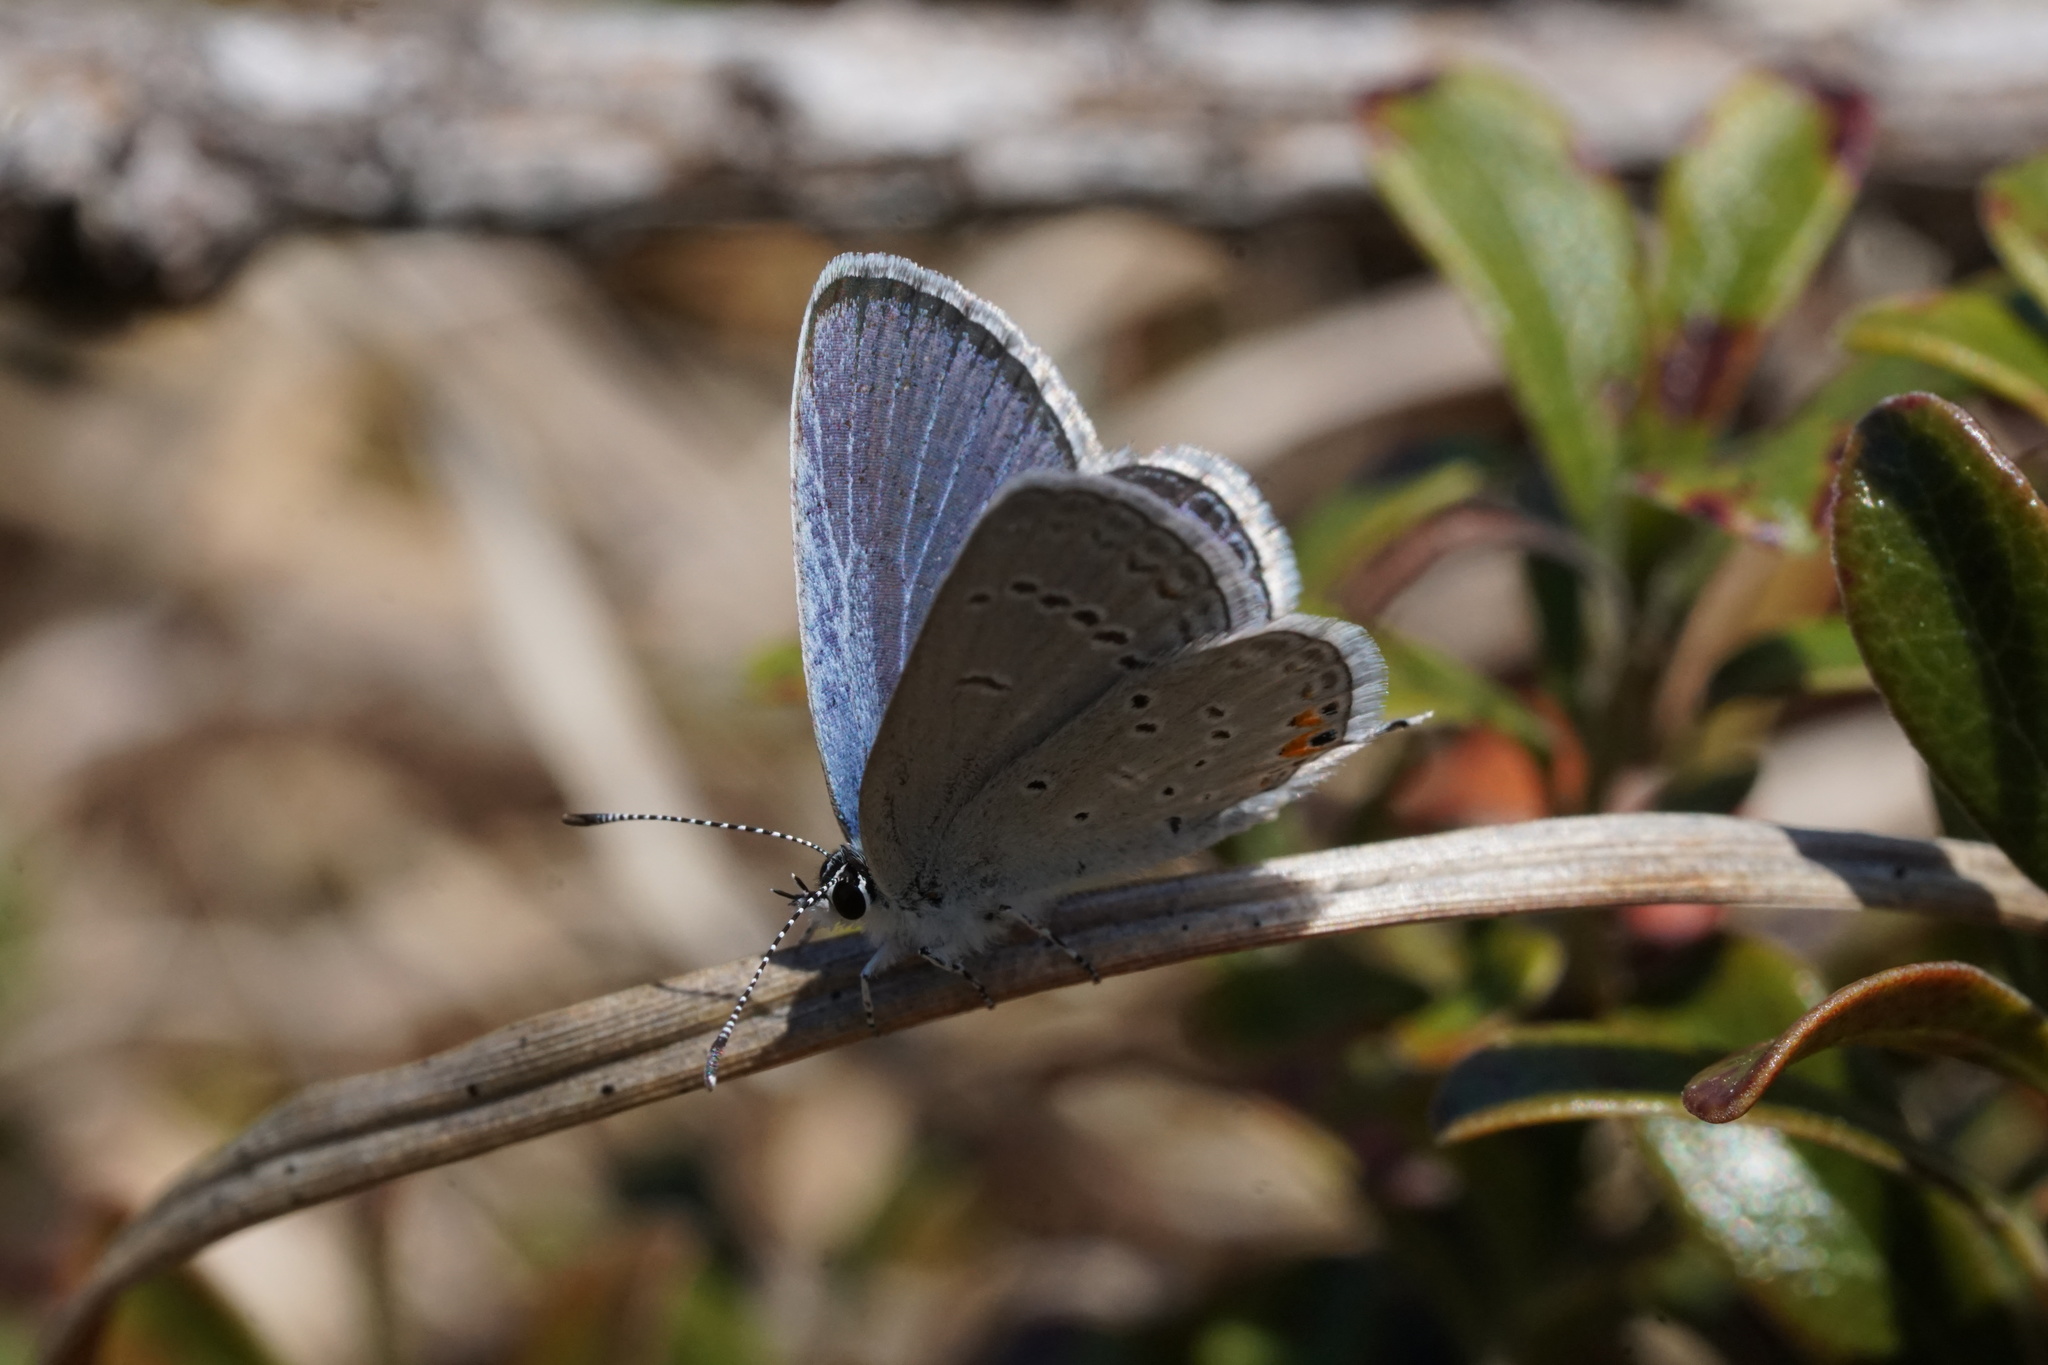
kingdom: Animalia
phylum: Arthropoda
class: Insecta
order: Lepidoptera
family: Lycaenidae
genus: Elkalyce
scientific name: Elkalyce comyntas
